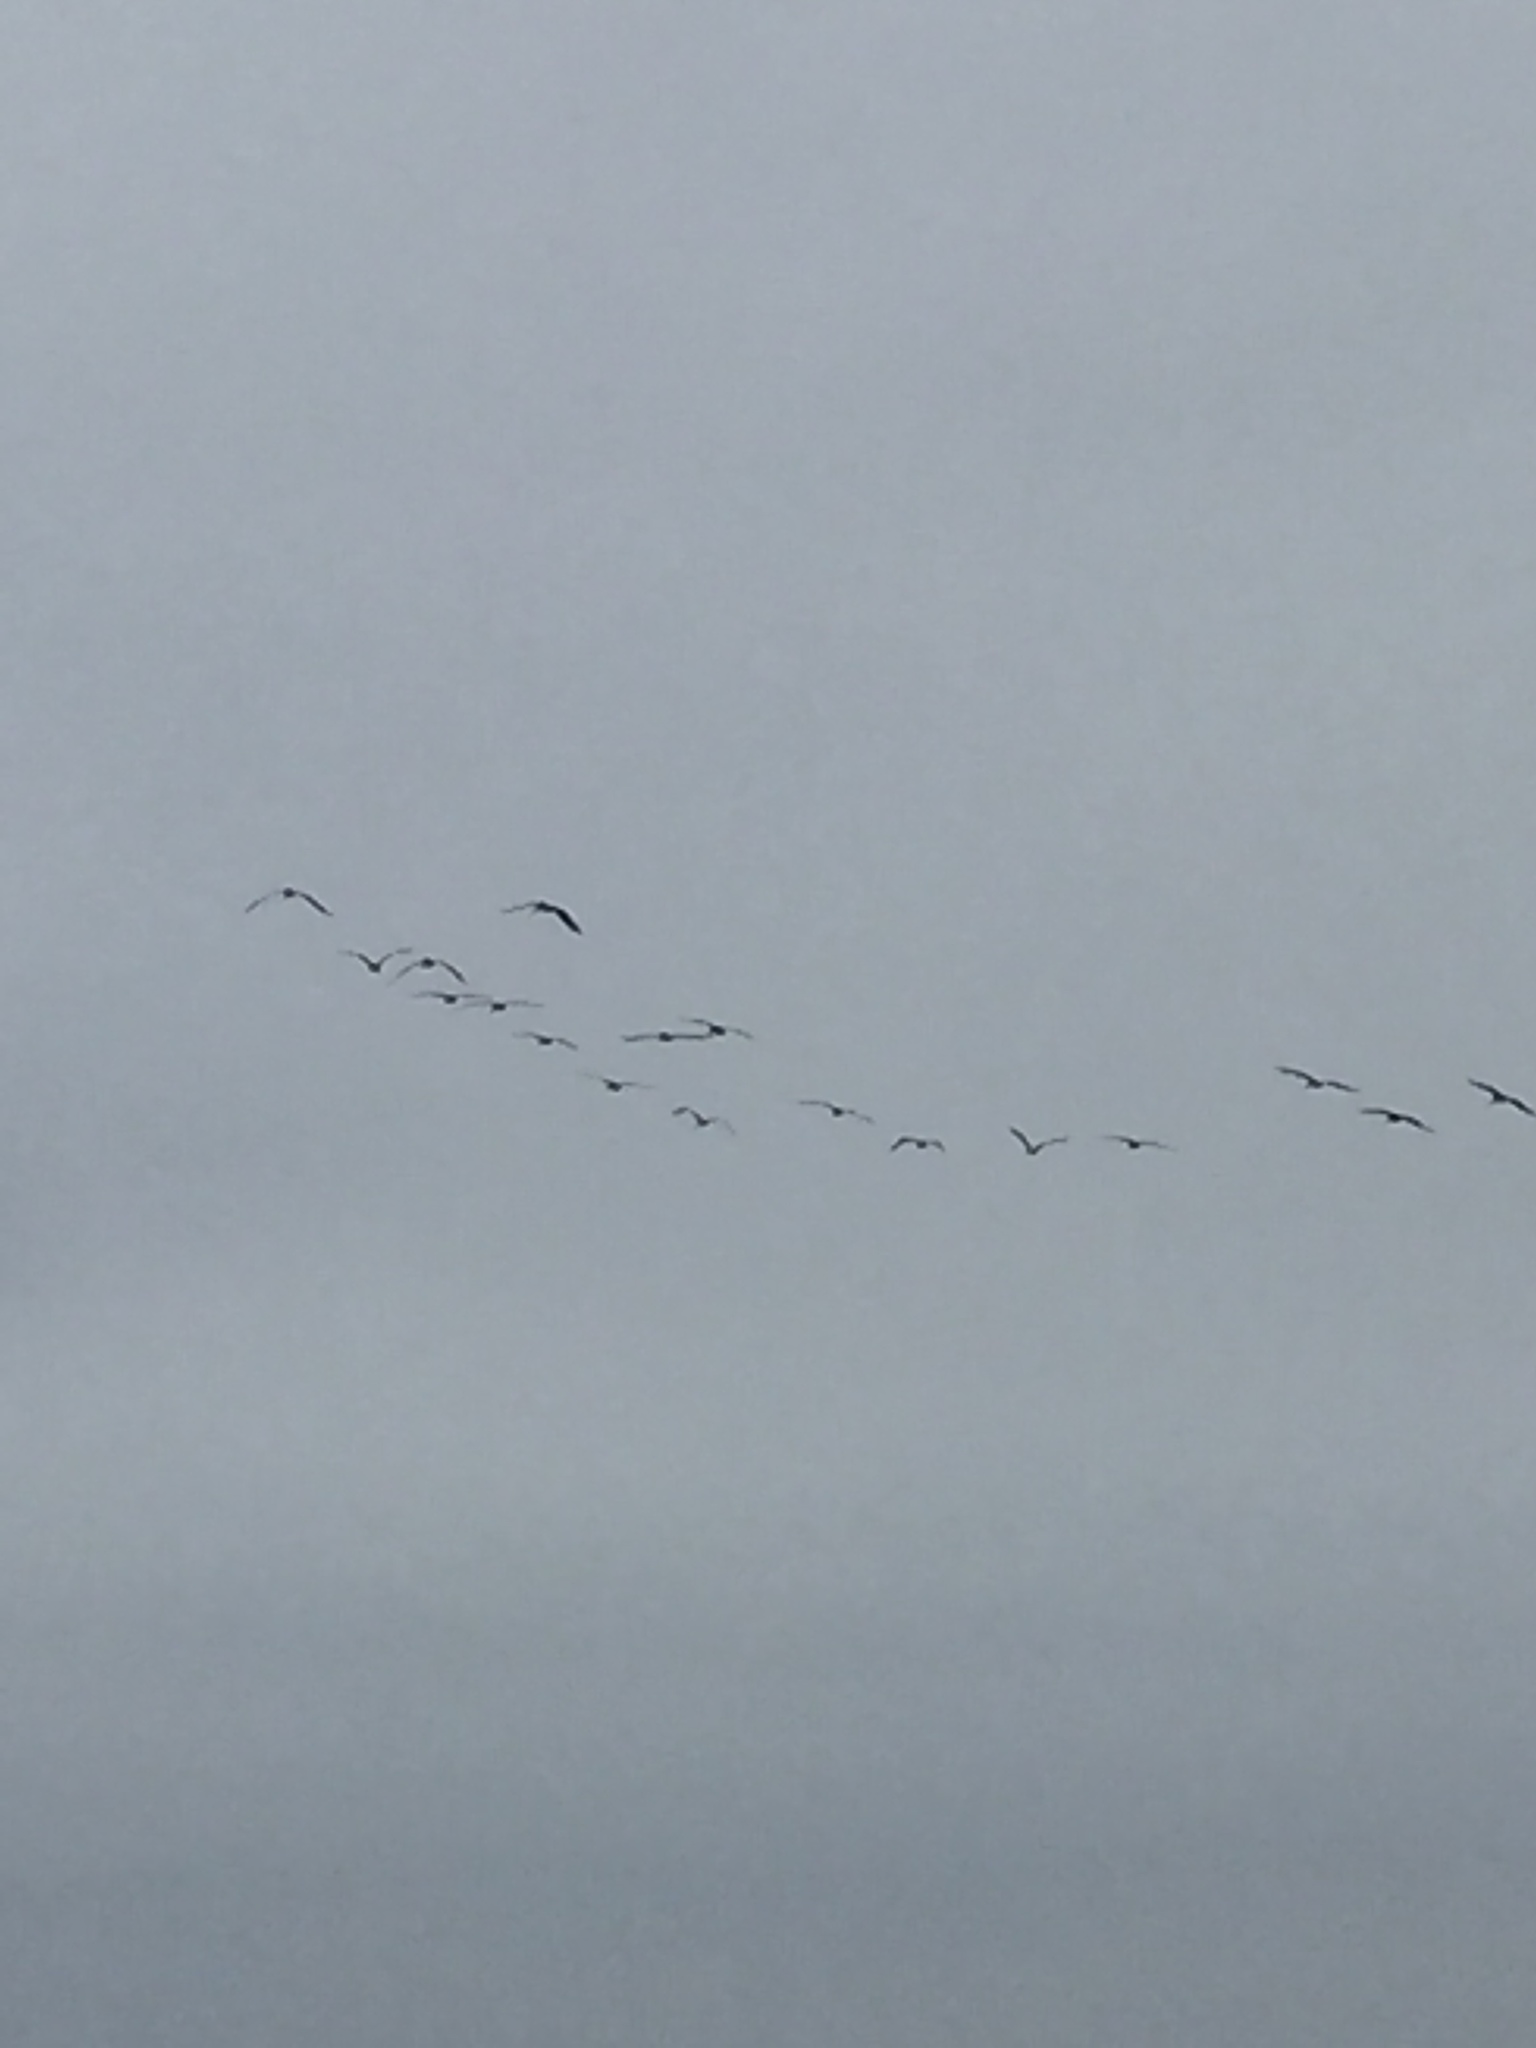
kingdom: Animalia
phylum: Chordata
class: Aves
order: Pelecaniformes
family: Pelecanidae
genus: Pelecanus
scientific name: Pelecanus occidentalis
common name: Brown pelican
